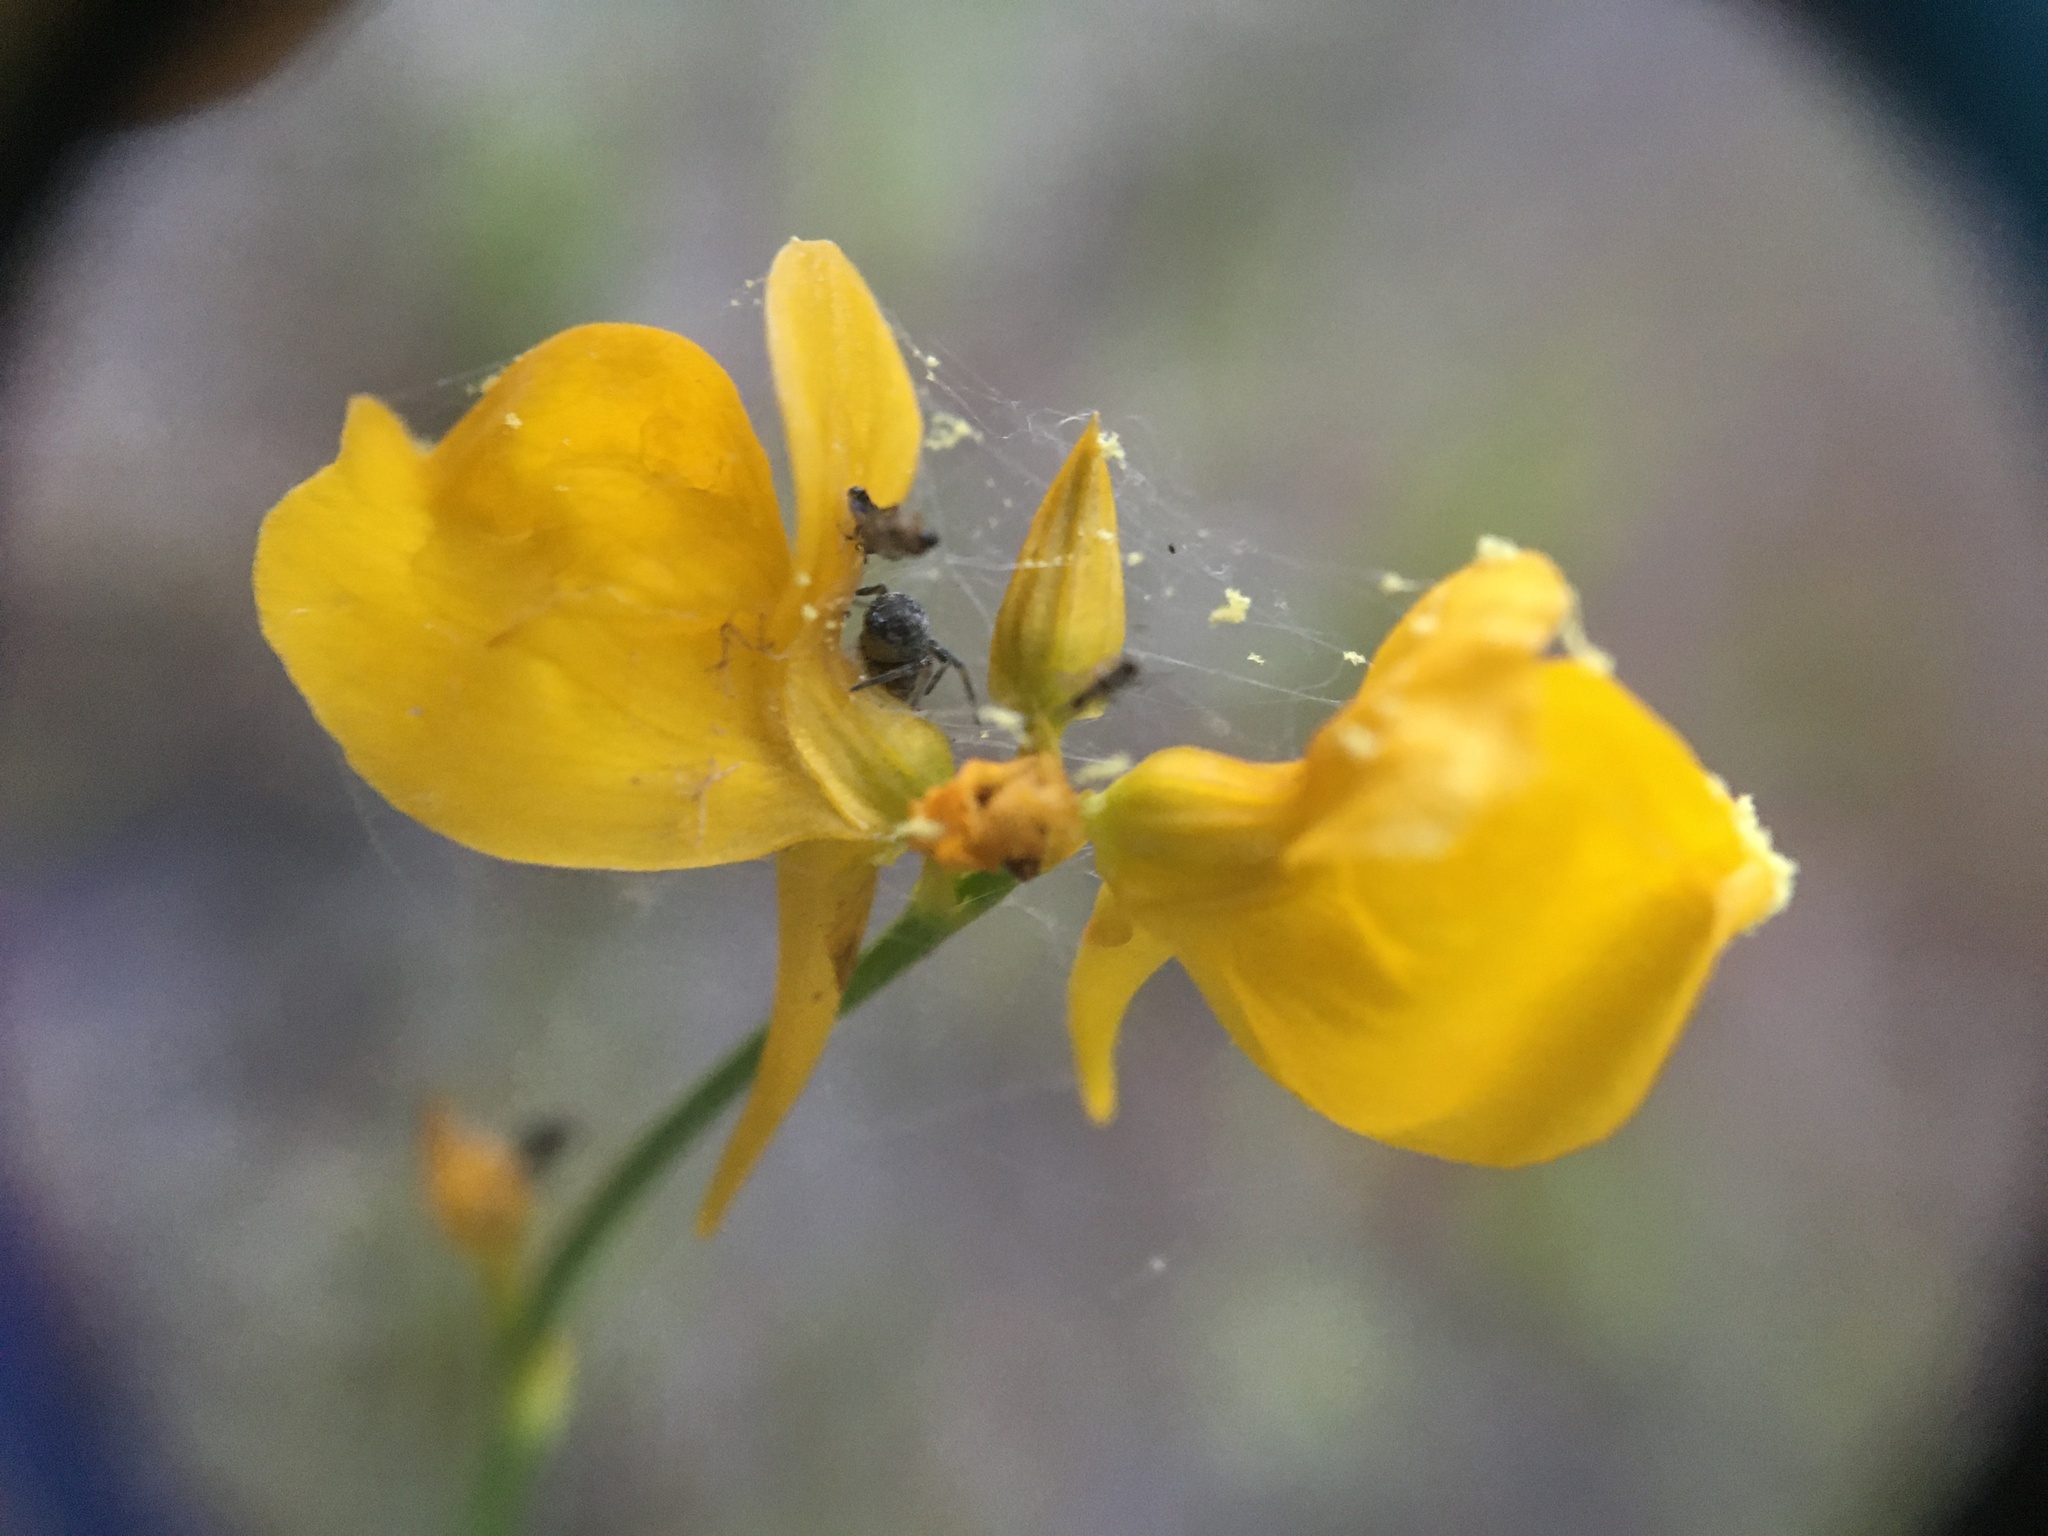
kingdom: Plantae
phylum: Tracheophyta
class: Magnoliopsida
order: Lamiales
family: Lentibulariaceae
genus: Utricularia
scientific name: Utricularia cornuta
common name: Horned bladderwort
